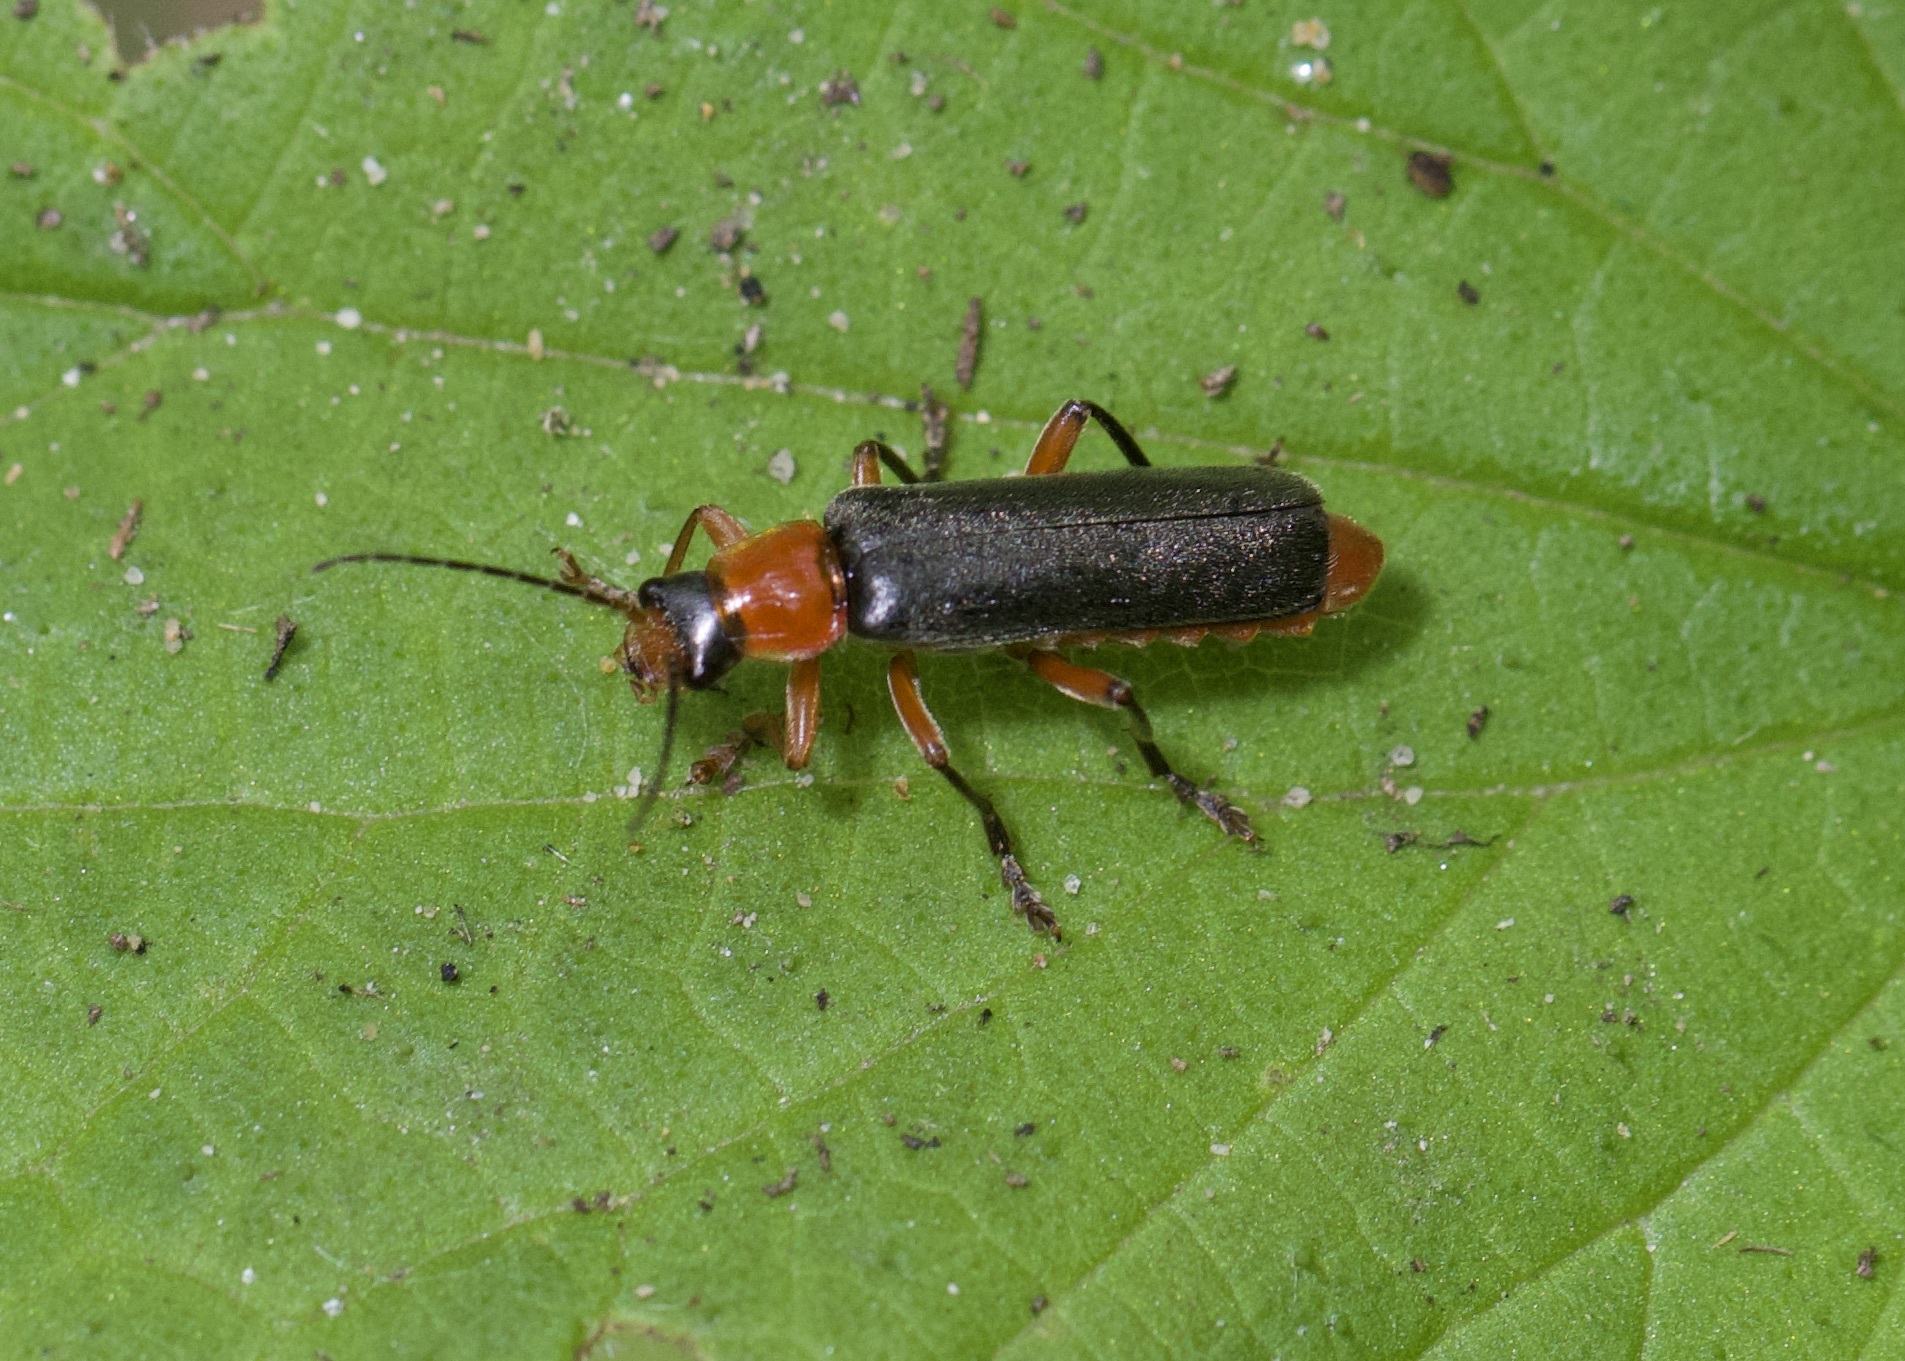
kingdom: Animalia
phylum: Arthropoda
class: Insecta
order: Coleoptera
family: Cantharidae
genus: Cantharis
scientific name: Cantharis pellucida
